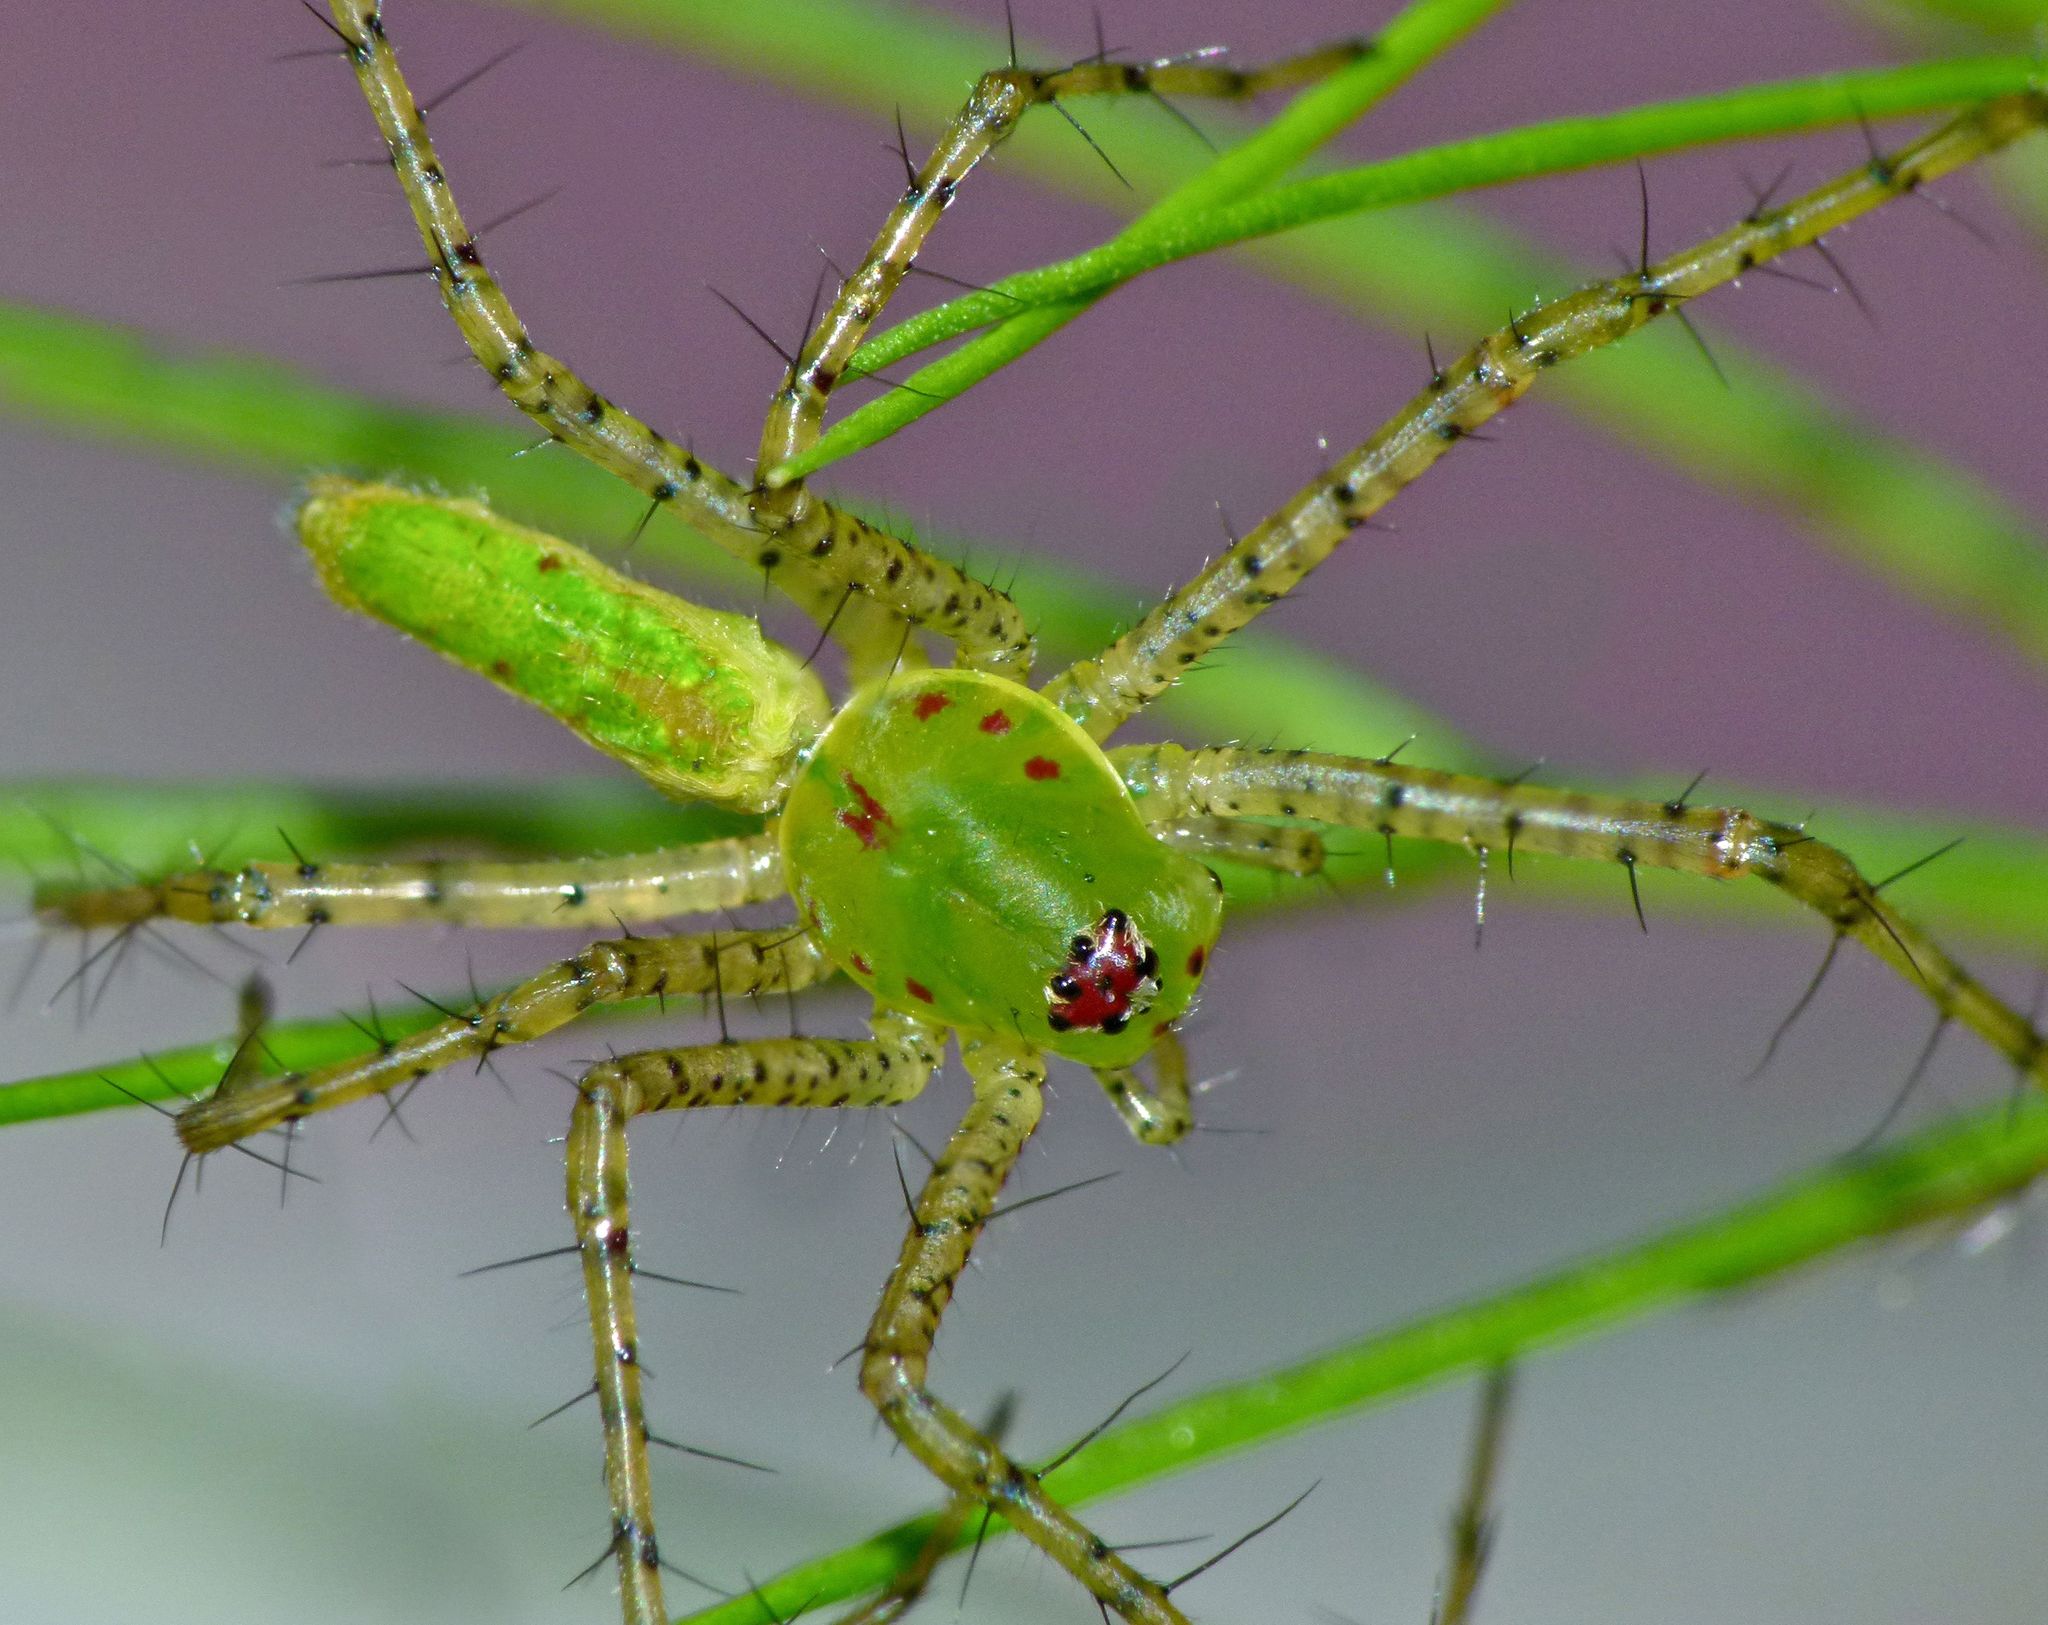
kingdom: Animalia
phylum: Arthropoda
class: Arachnida
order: Araneae
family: Oxyopidae
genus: Peucetia
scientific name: Peucetia viridans
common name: Lynx spiders
